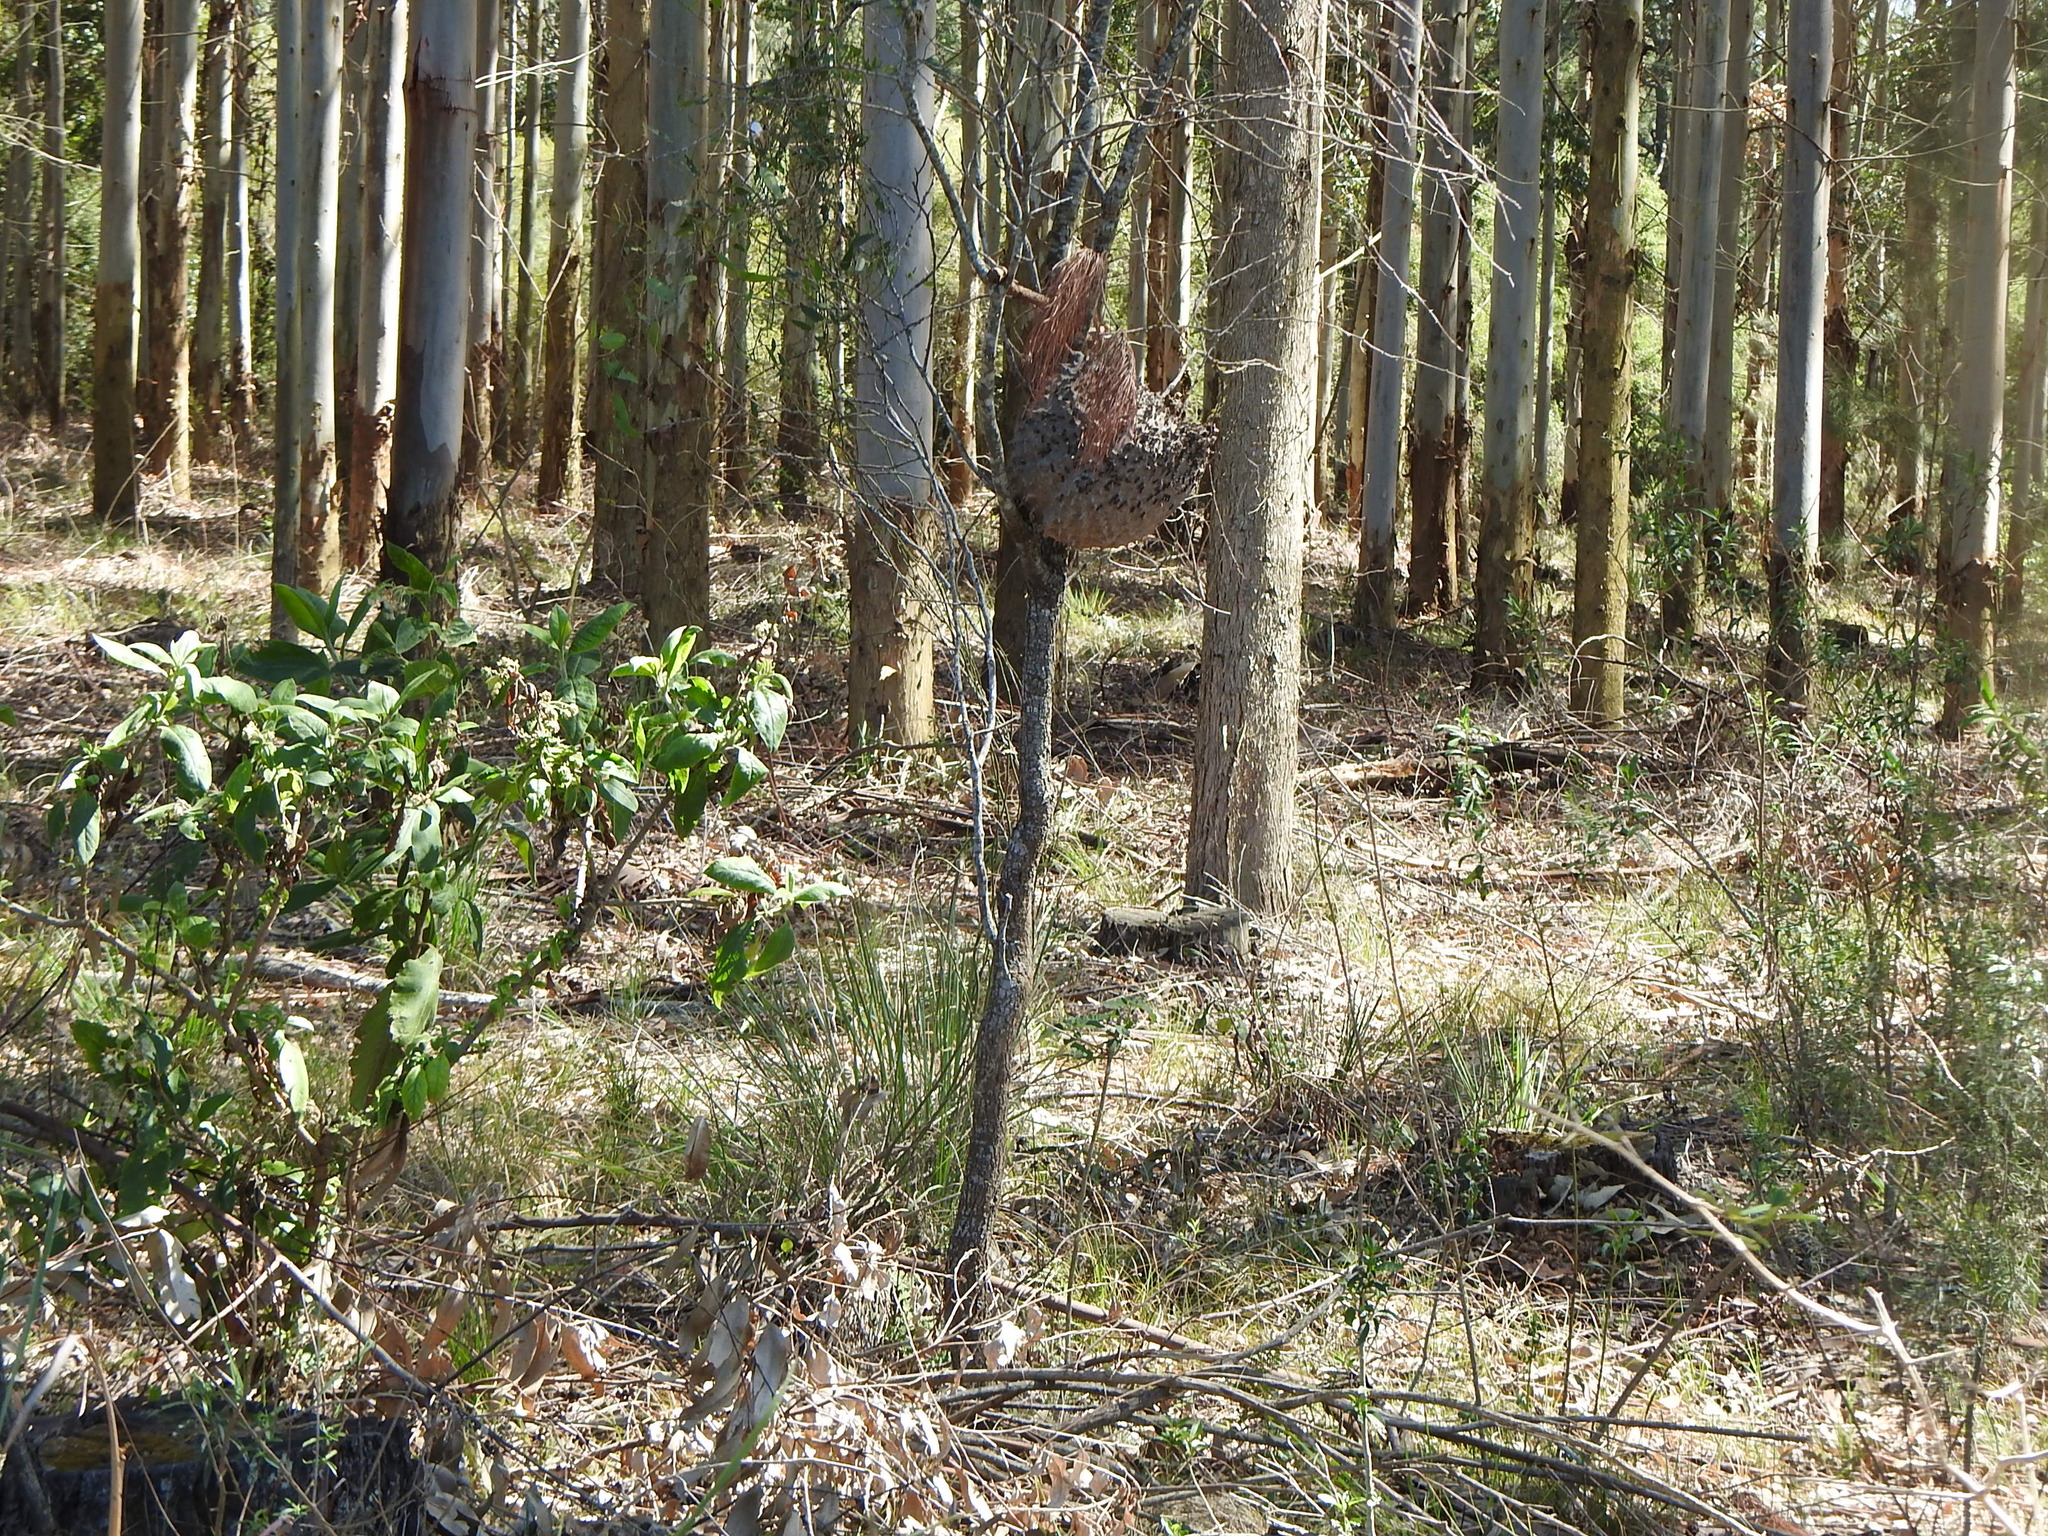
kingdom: Animalia
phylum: Arthropoda
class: Insecta
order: Hymenoptera
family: Eumenidae
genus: Polybia
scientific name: Polybia scutellaris
